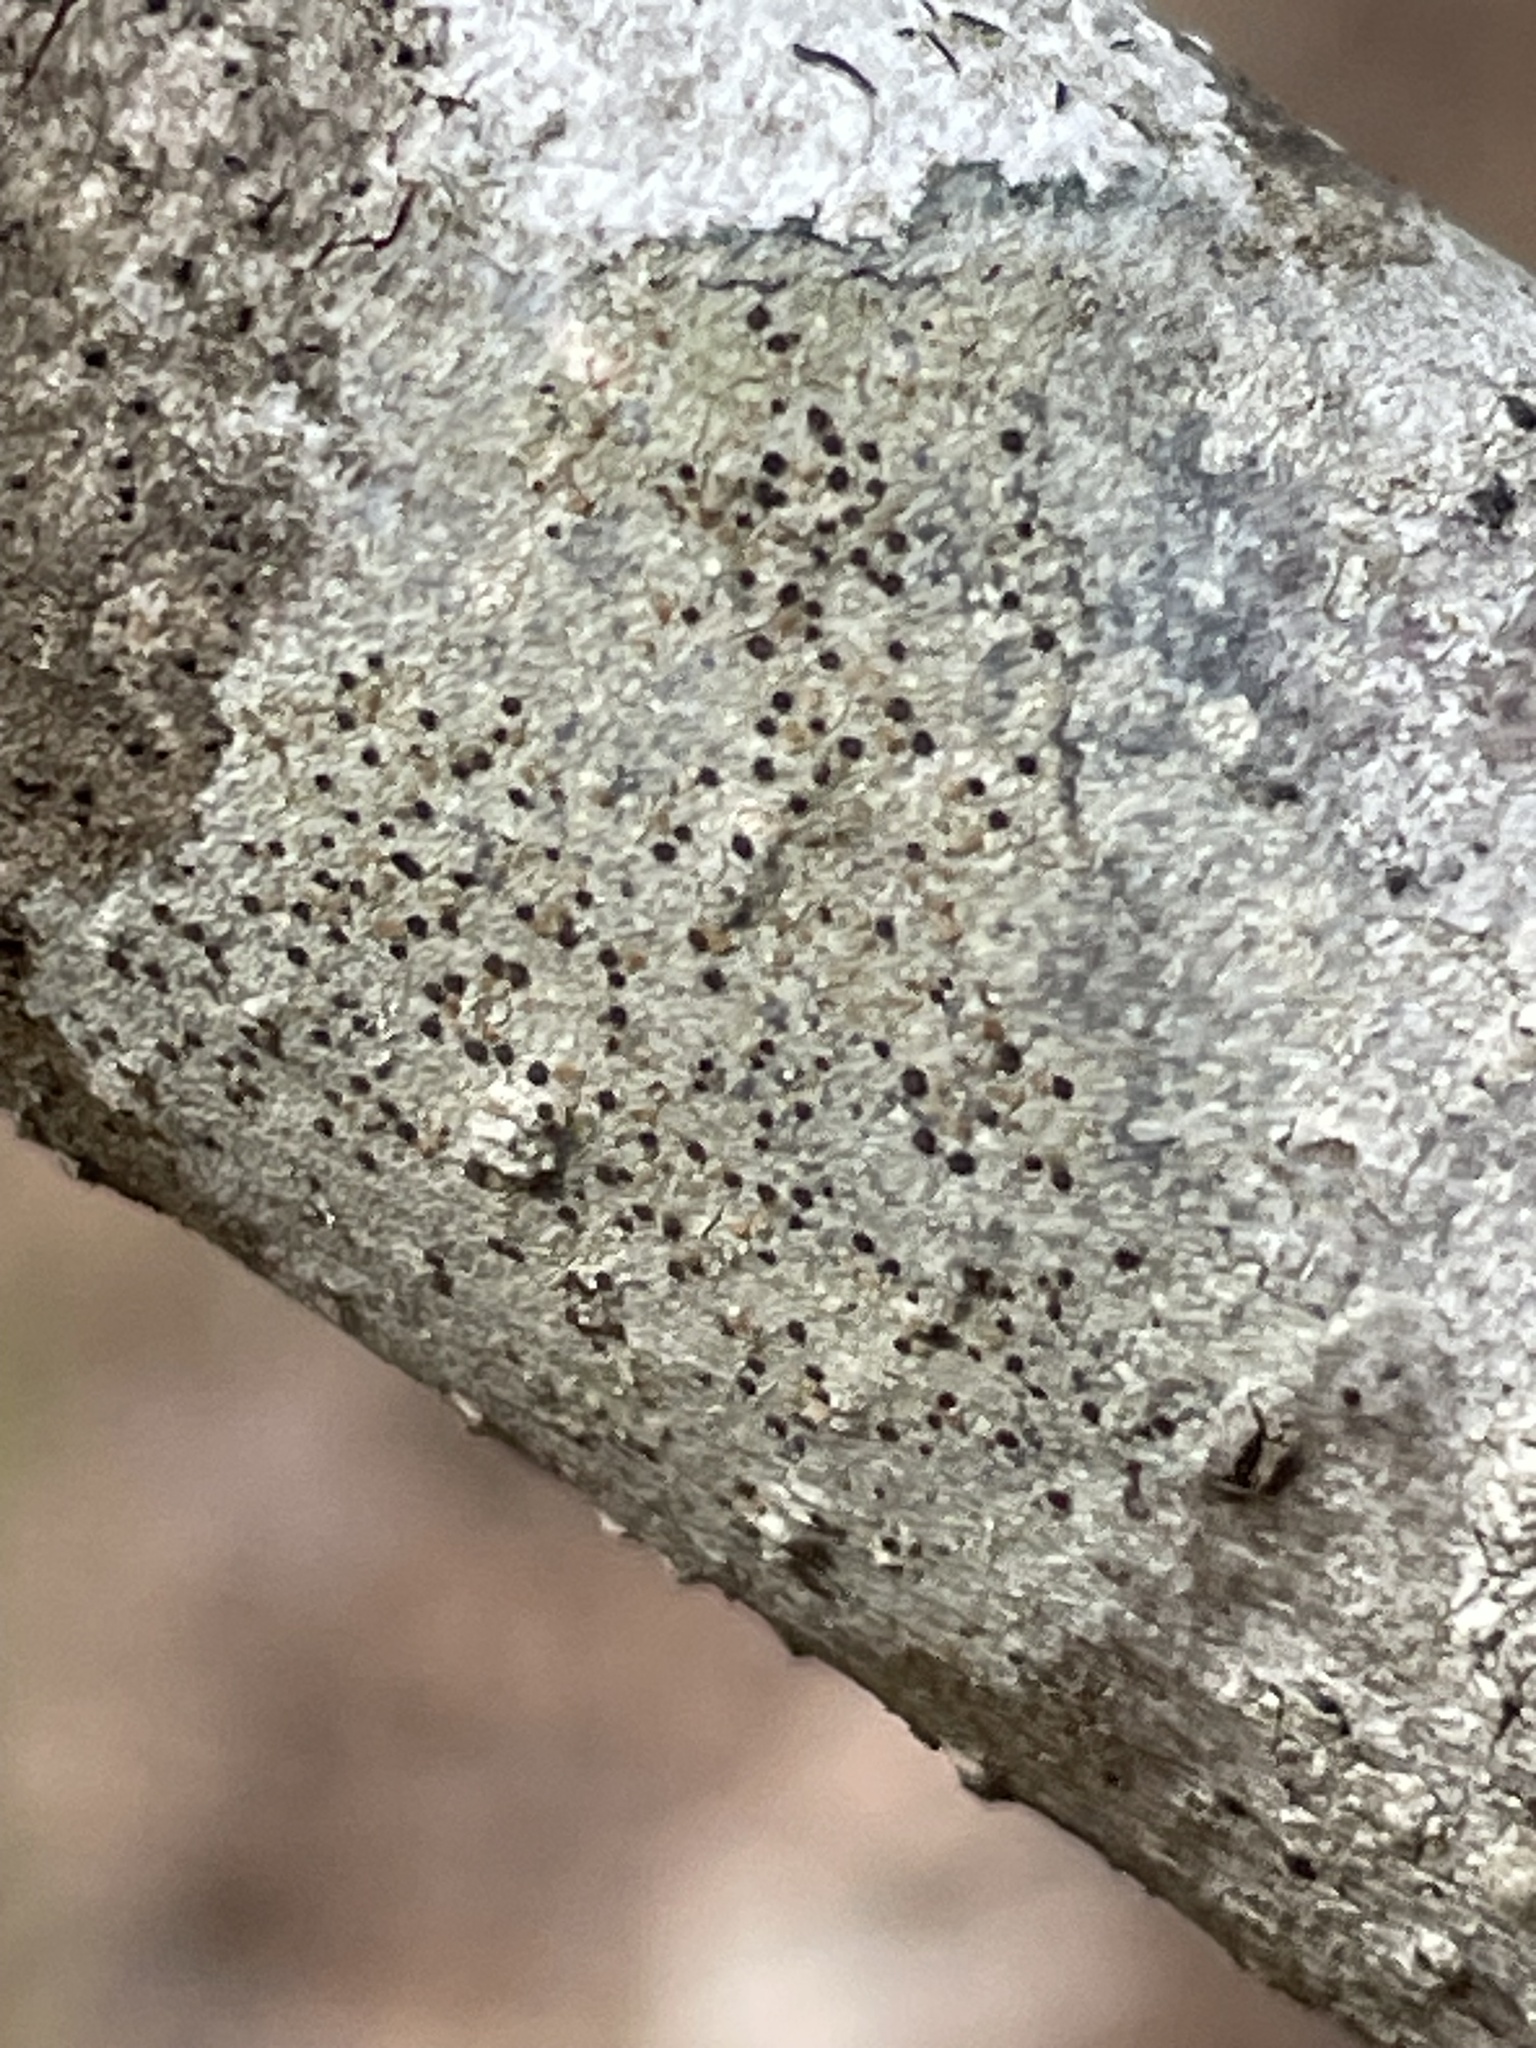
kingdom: Fungi
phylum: Ascomycota
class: Lecanoromycetes
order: Lecanorales
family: Lecanoraceae
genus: Traponora
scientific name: Traponora varians
